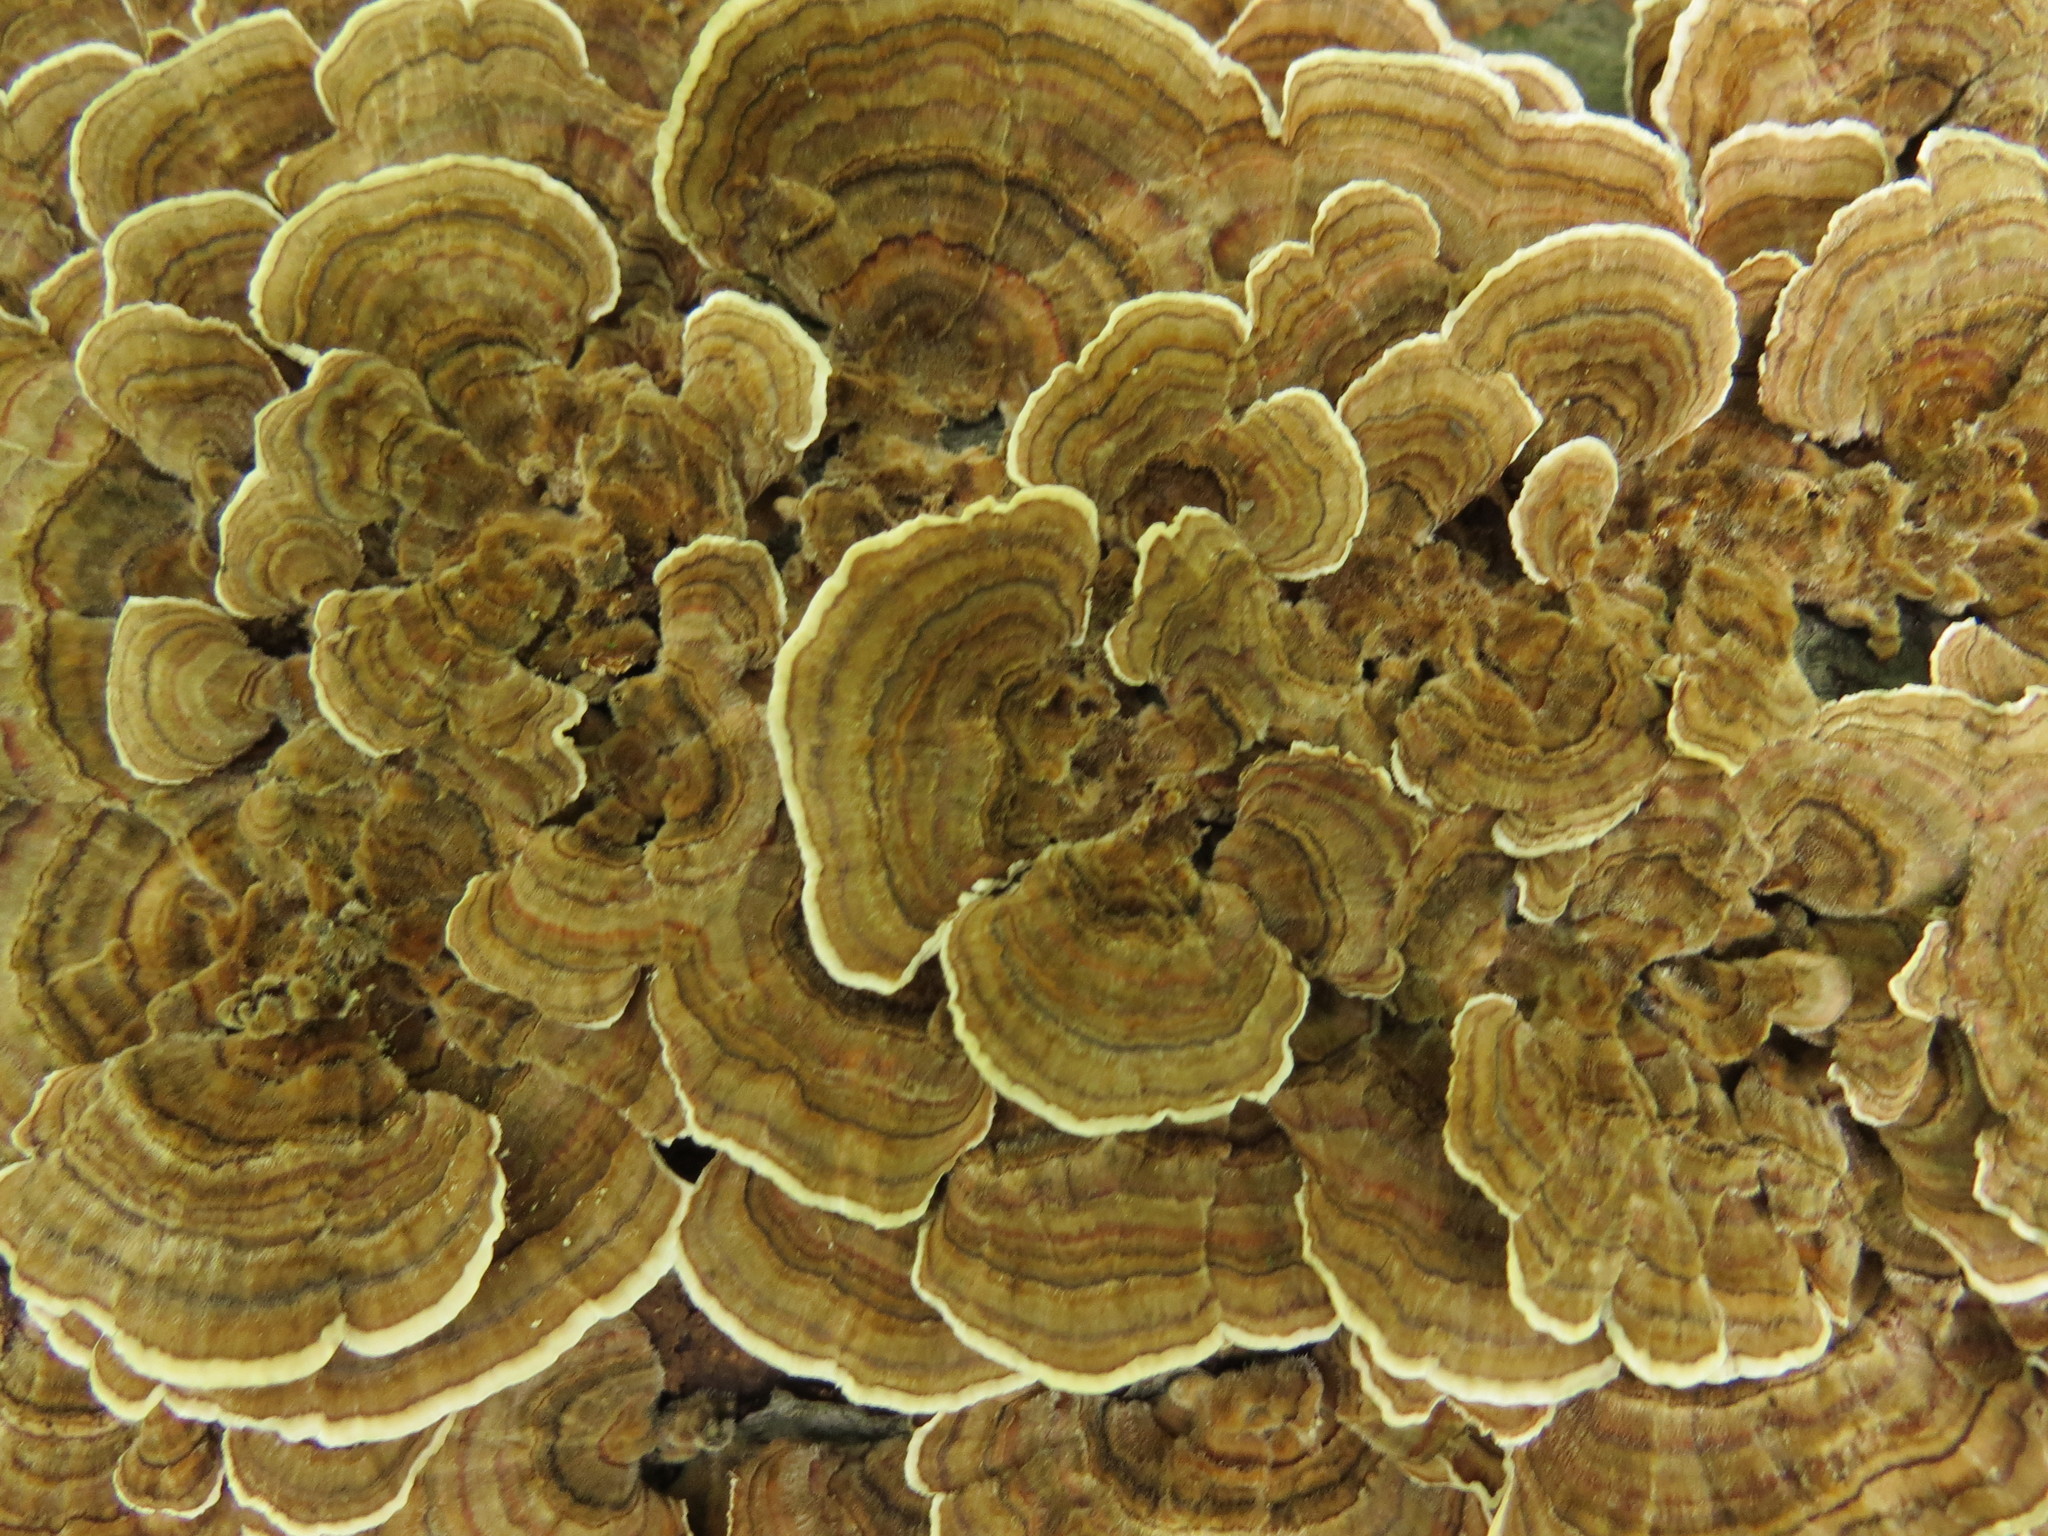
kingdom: Fungi
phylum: Basidiomycota
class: Agaricomycetes
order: Polyporales
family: Polyporaceae
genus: Trametes
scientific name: Trametes versicolor
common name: Turkeytail
